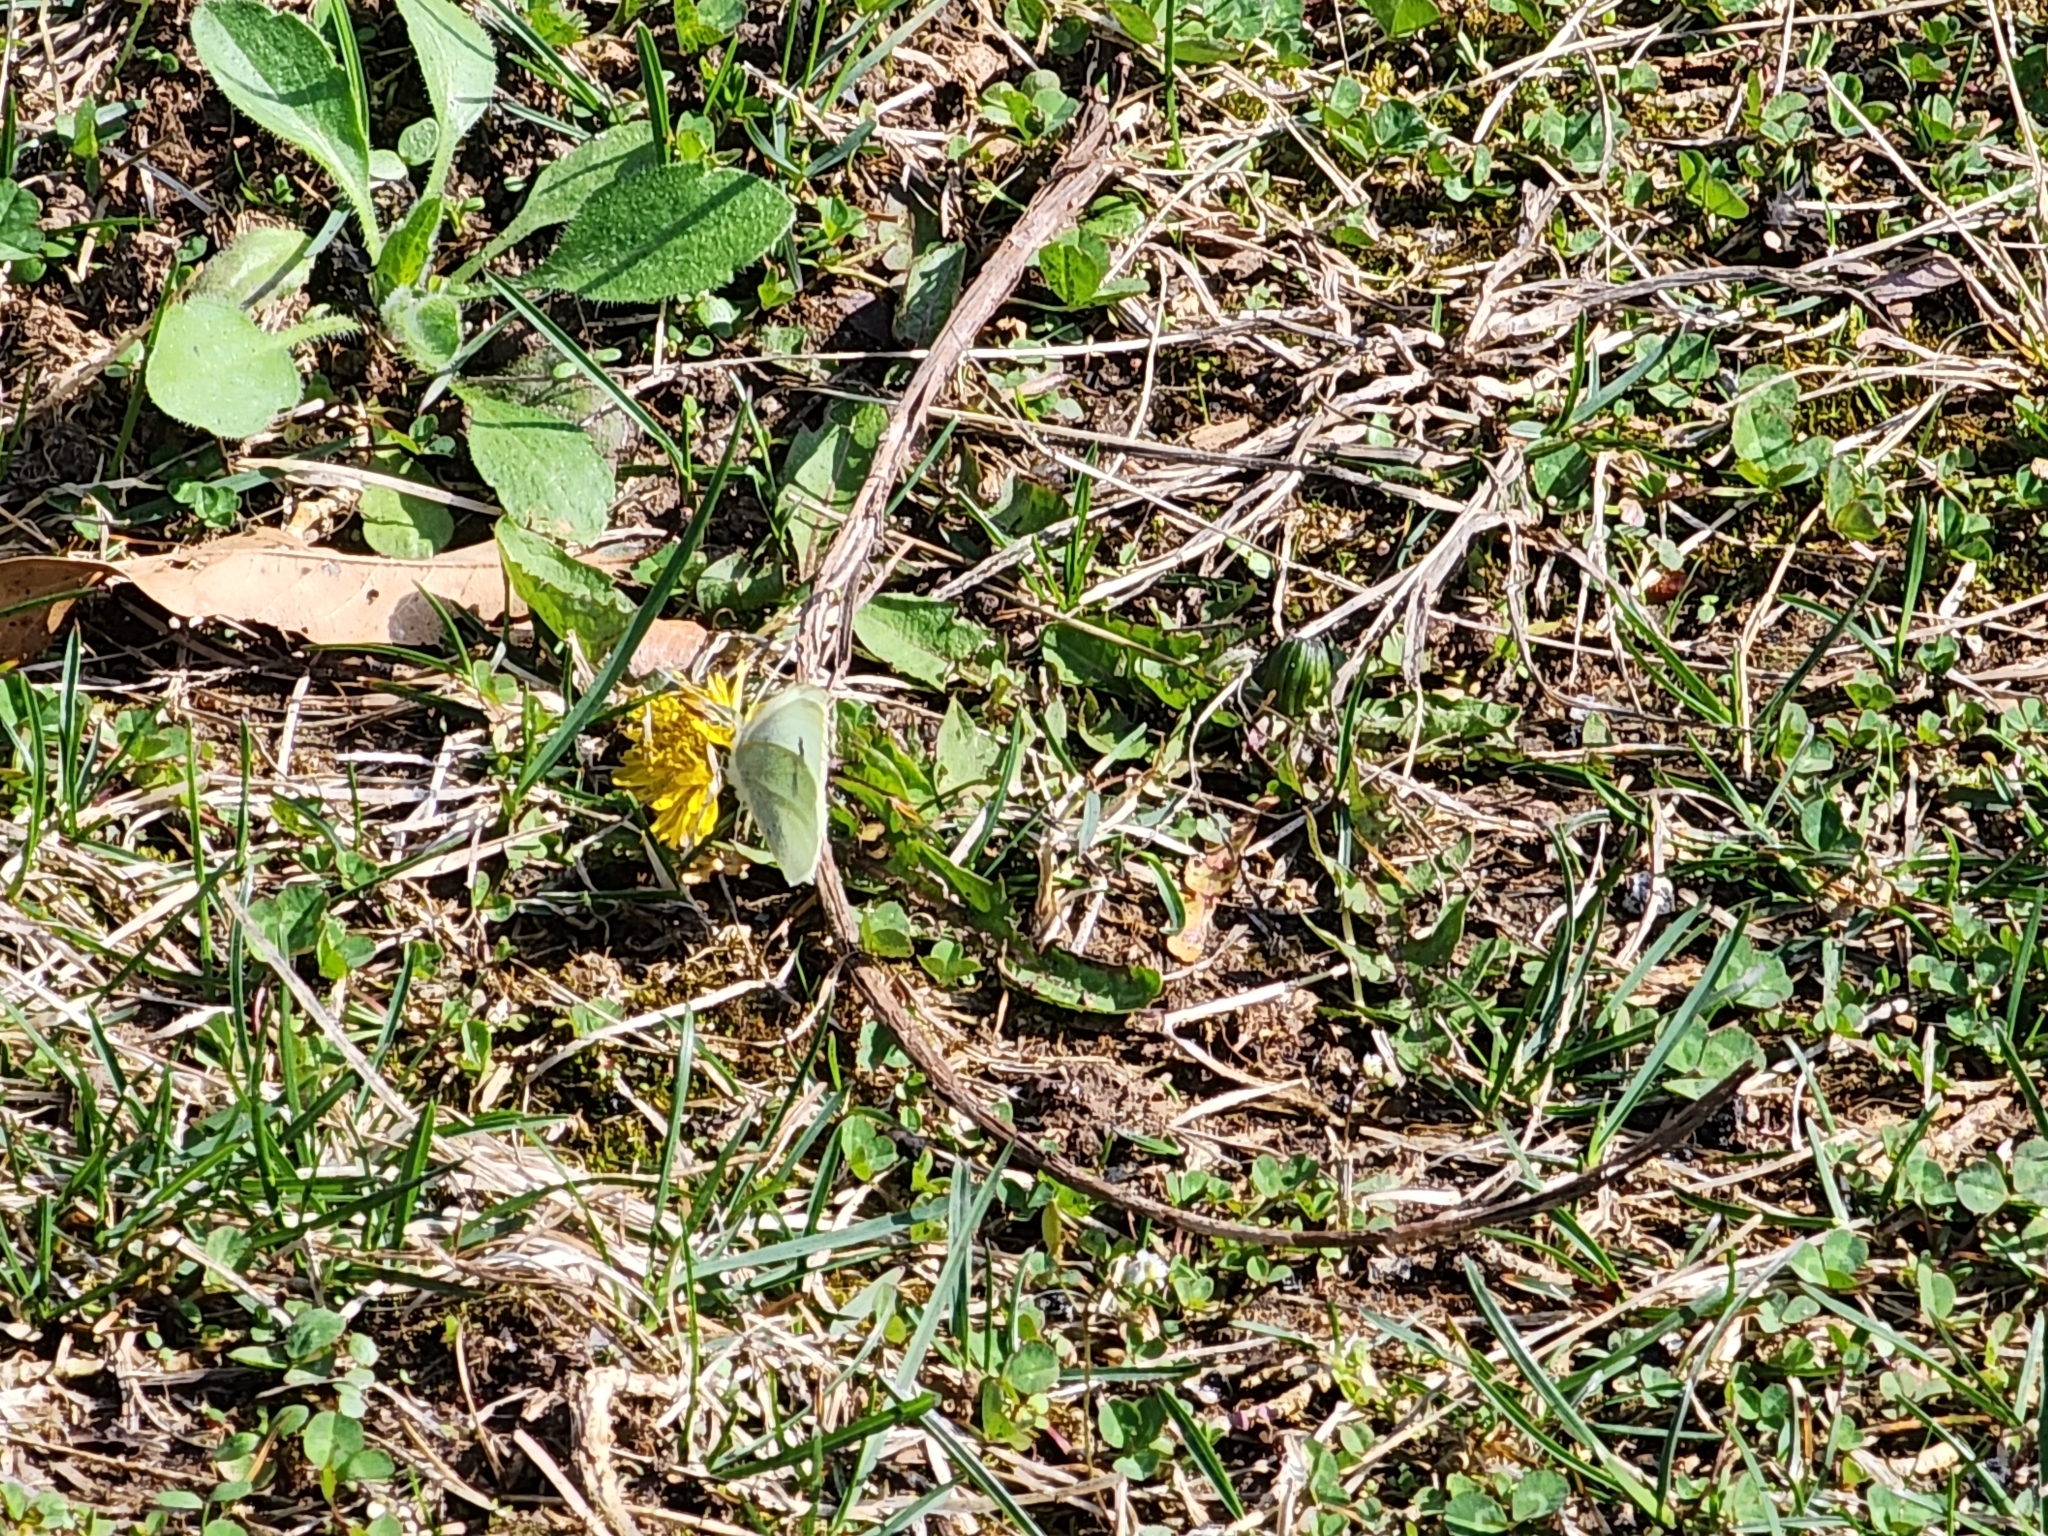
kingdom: Animalia
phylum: Arthropoda
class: Insecta
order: Lepidoptera
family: Pieridae
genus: Pieris
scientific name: Pieris rapae
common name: Small white
